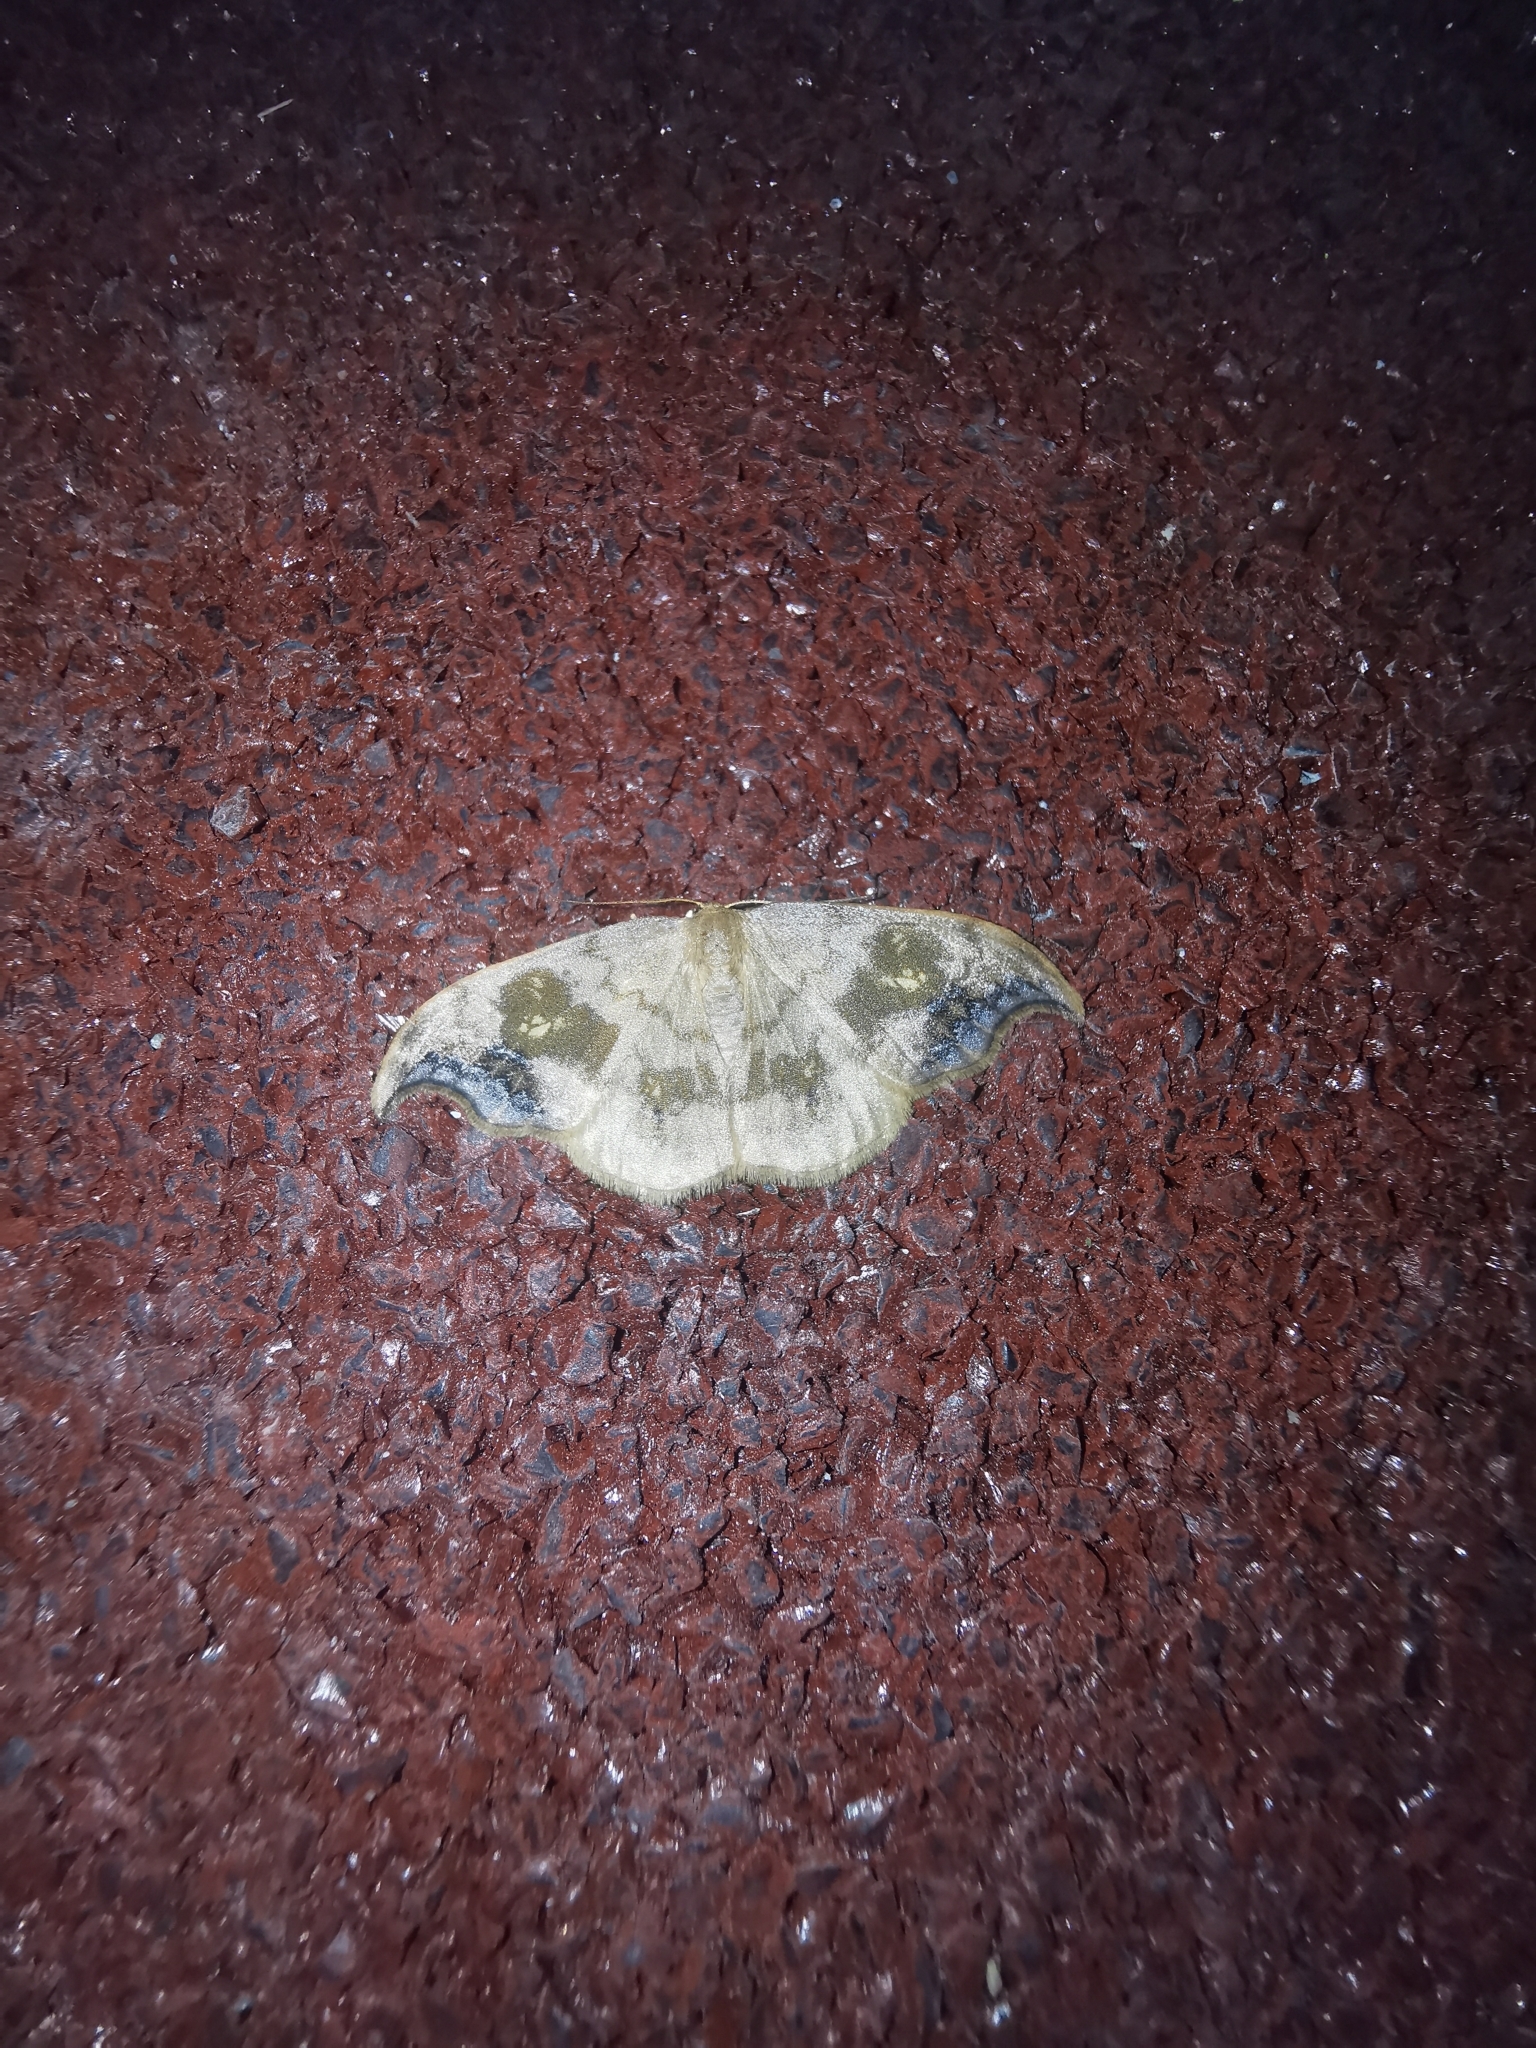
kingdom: Animalia
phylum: Arthropoda
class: Insecta
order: Lepidoptera
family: Drepanidae
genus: Sabra
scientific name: Sabra harpagula
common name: Scarce hook-tip
